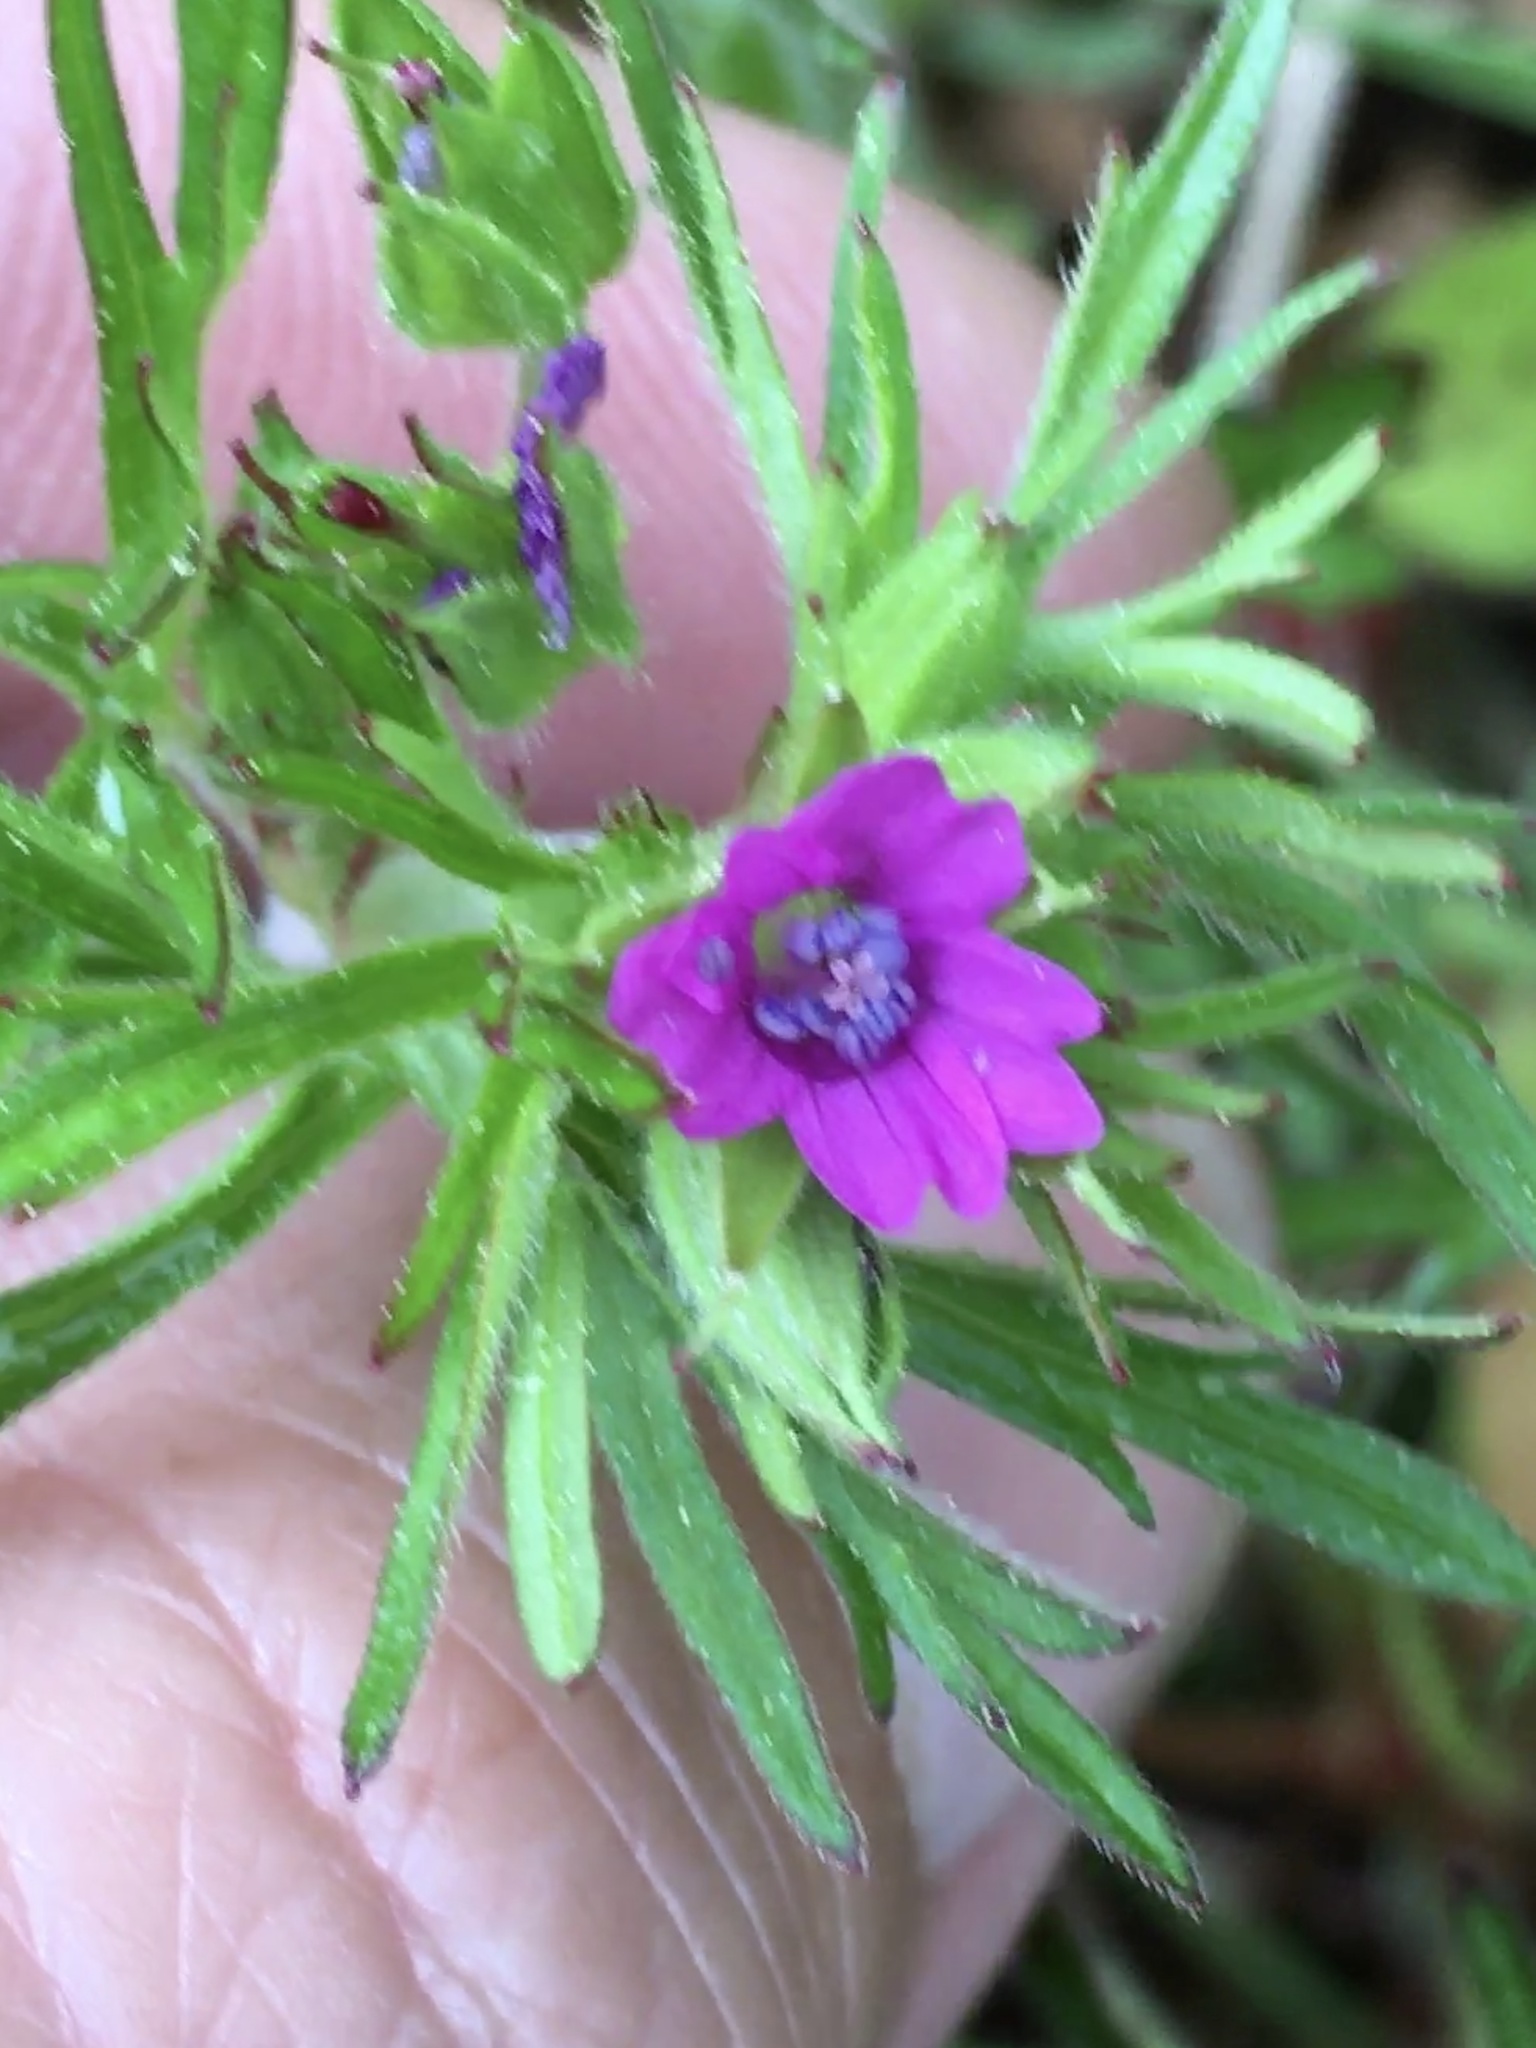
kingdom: Plantae
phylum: Tracheophyta
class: Magnoliopsida
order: Geraniales
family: Geraniaceae
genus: Geranium
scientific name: Geranium dissectum
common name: Cut-leaved crane's-bill
